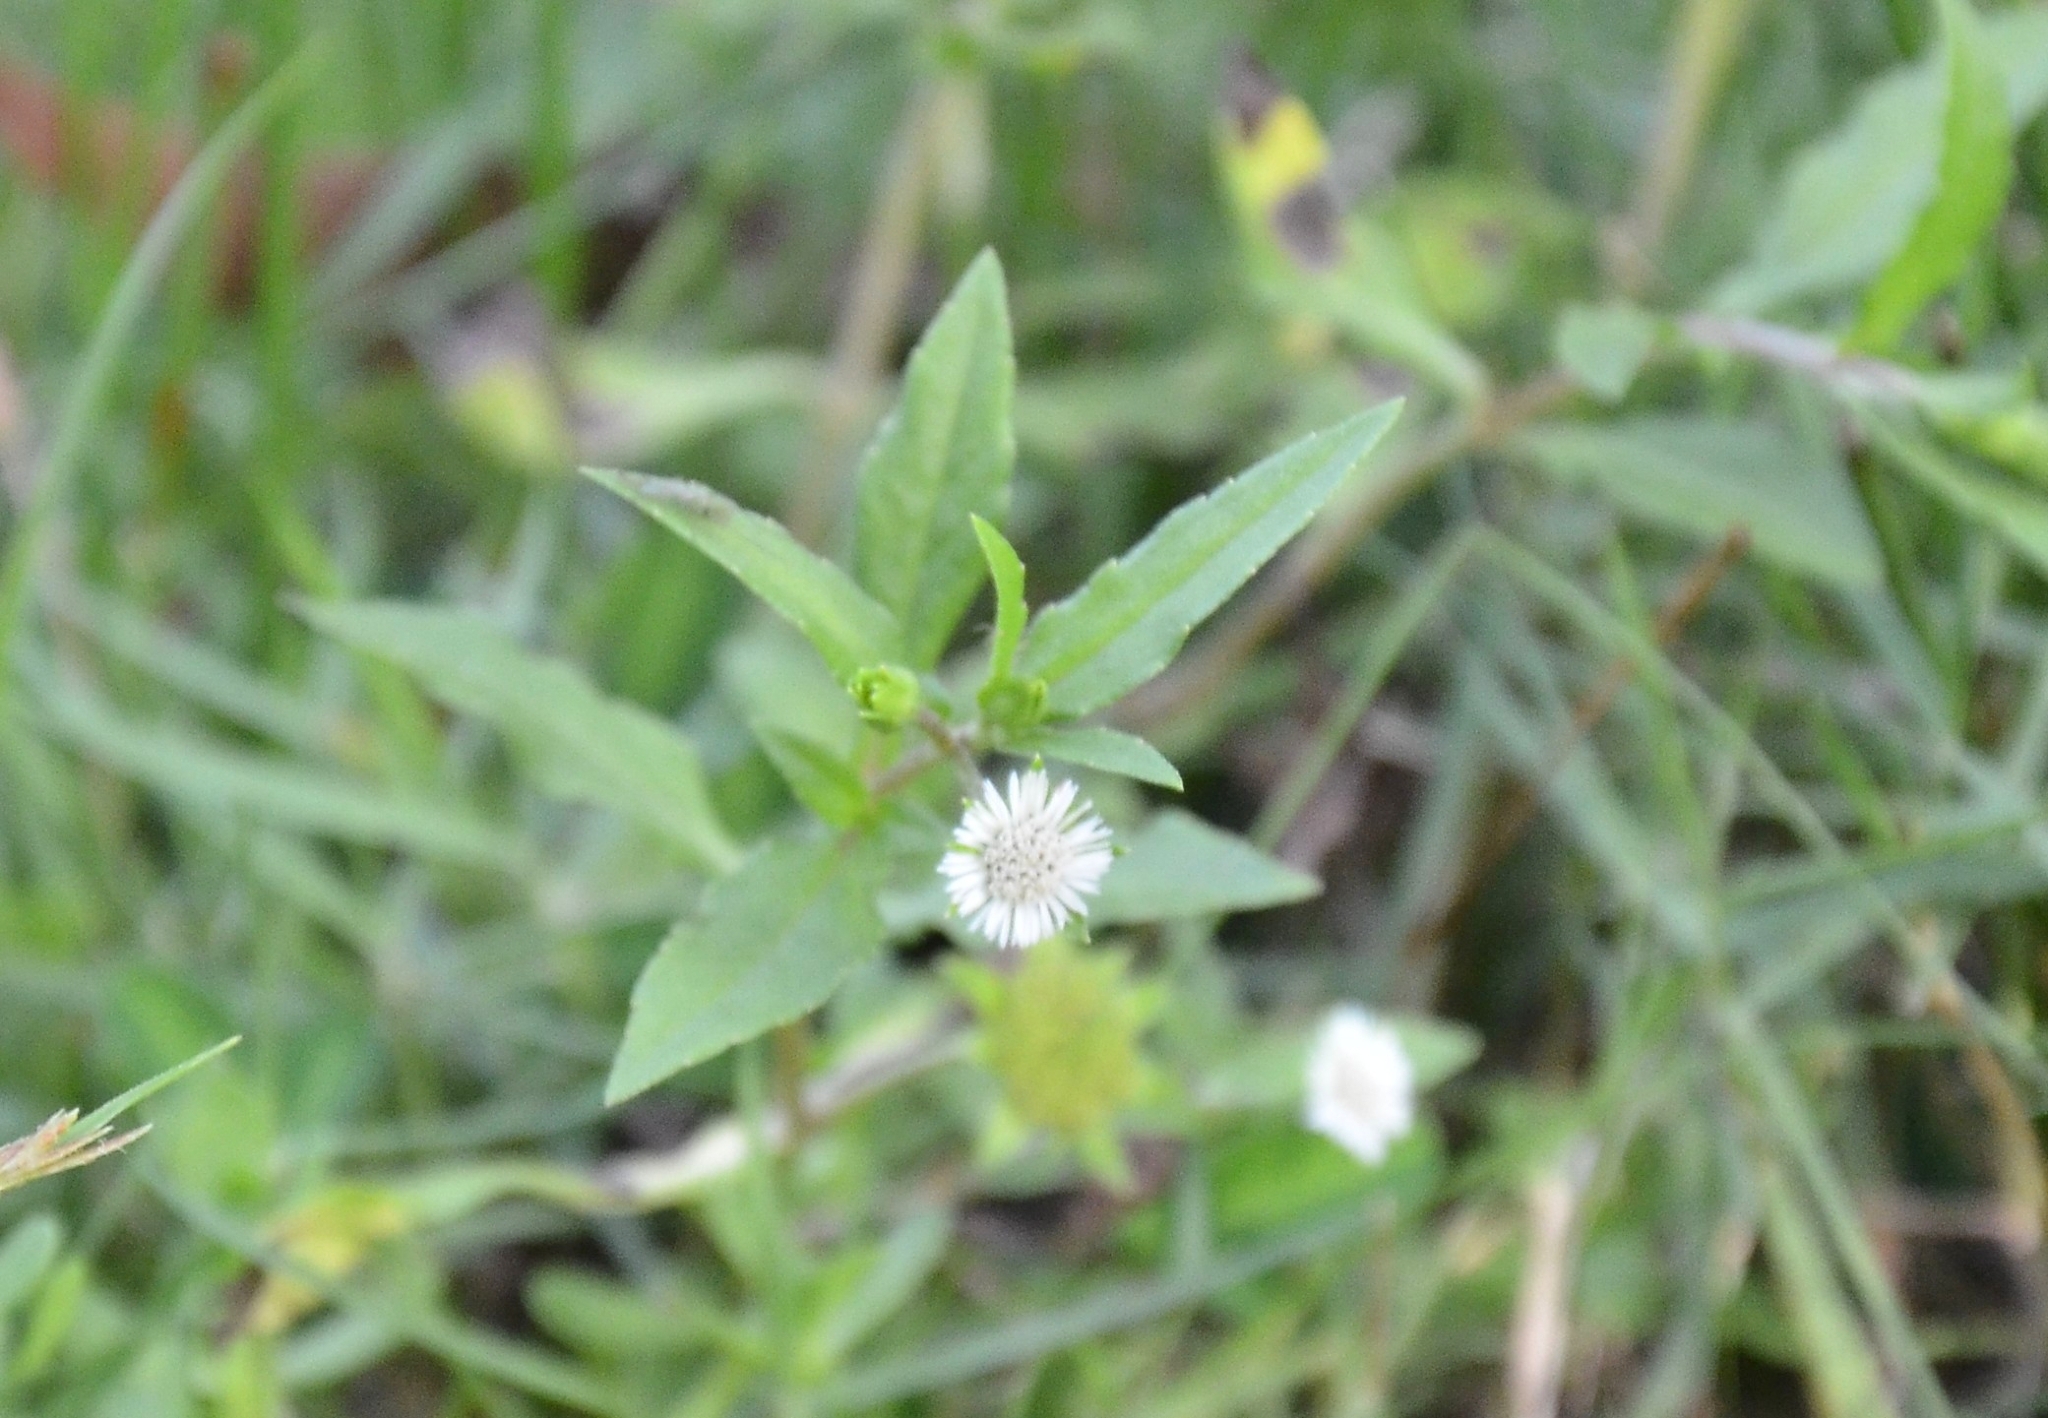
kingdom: Plantae
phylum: Tracheophyta
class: Magnoliopsida
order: Asterales
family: Asteraceae
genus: Eclipta
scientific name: Eclipta prostrata
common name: False daisy
